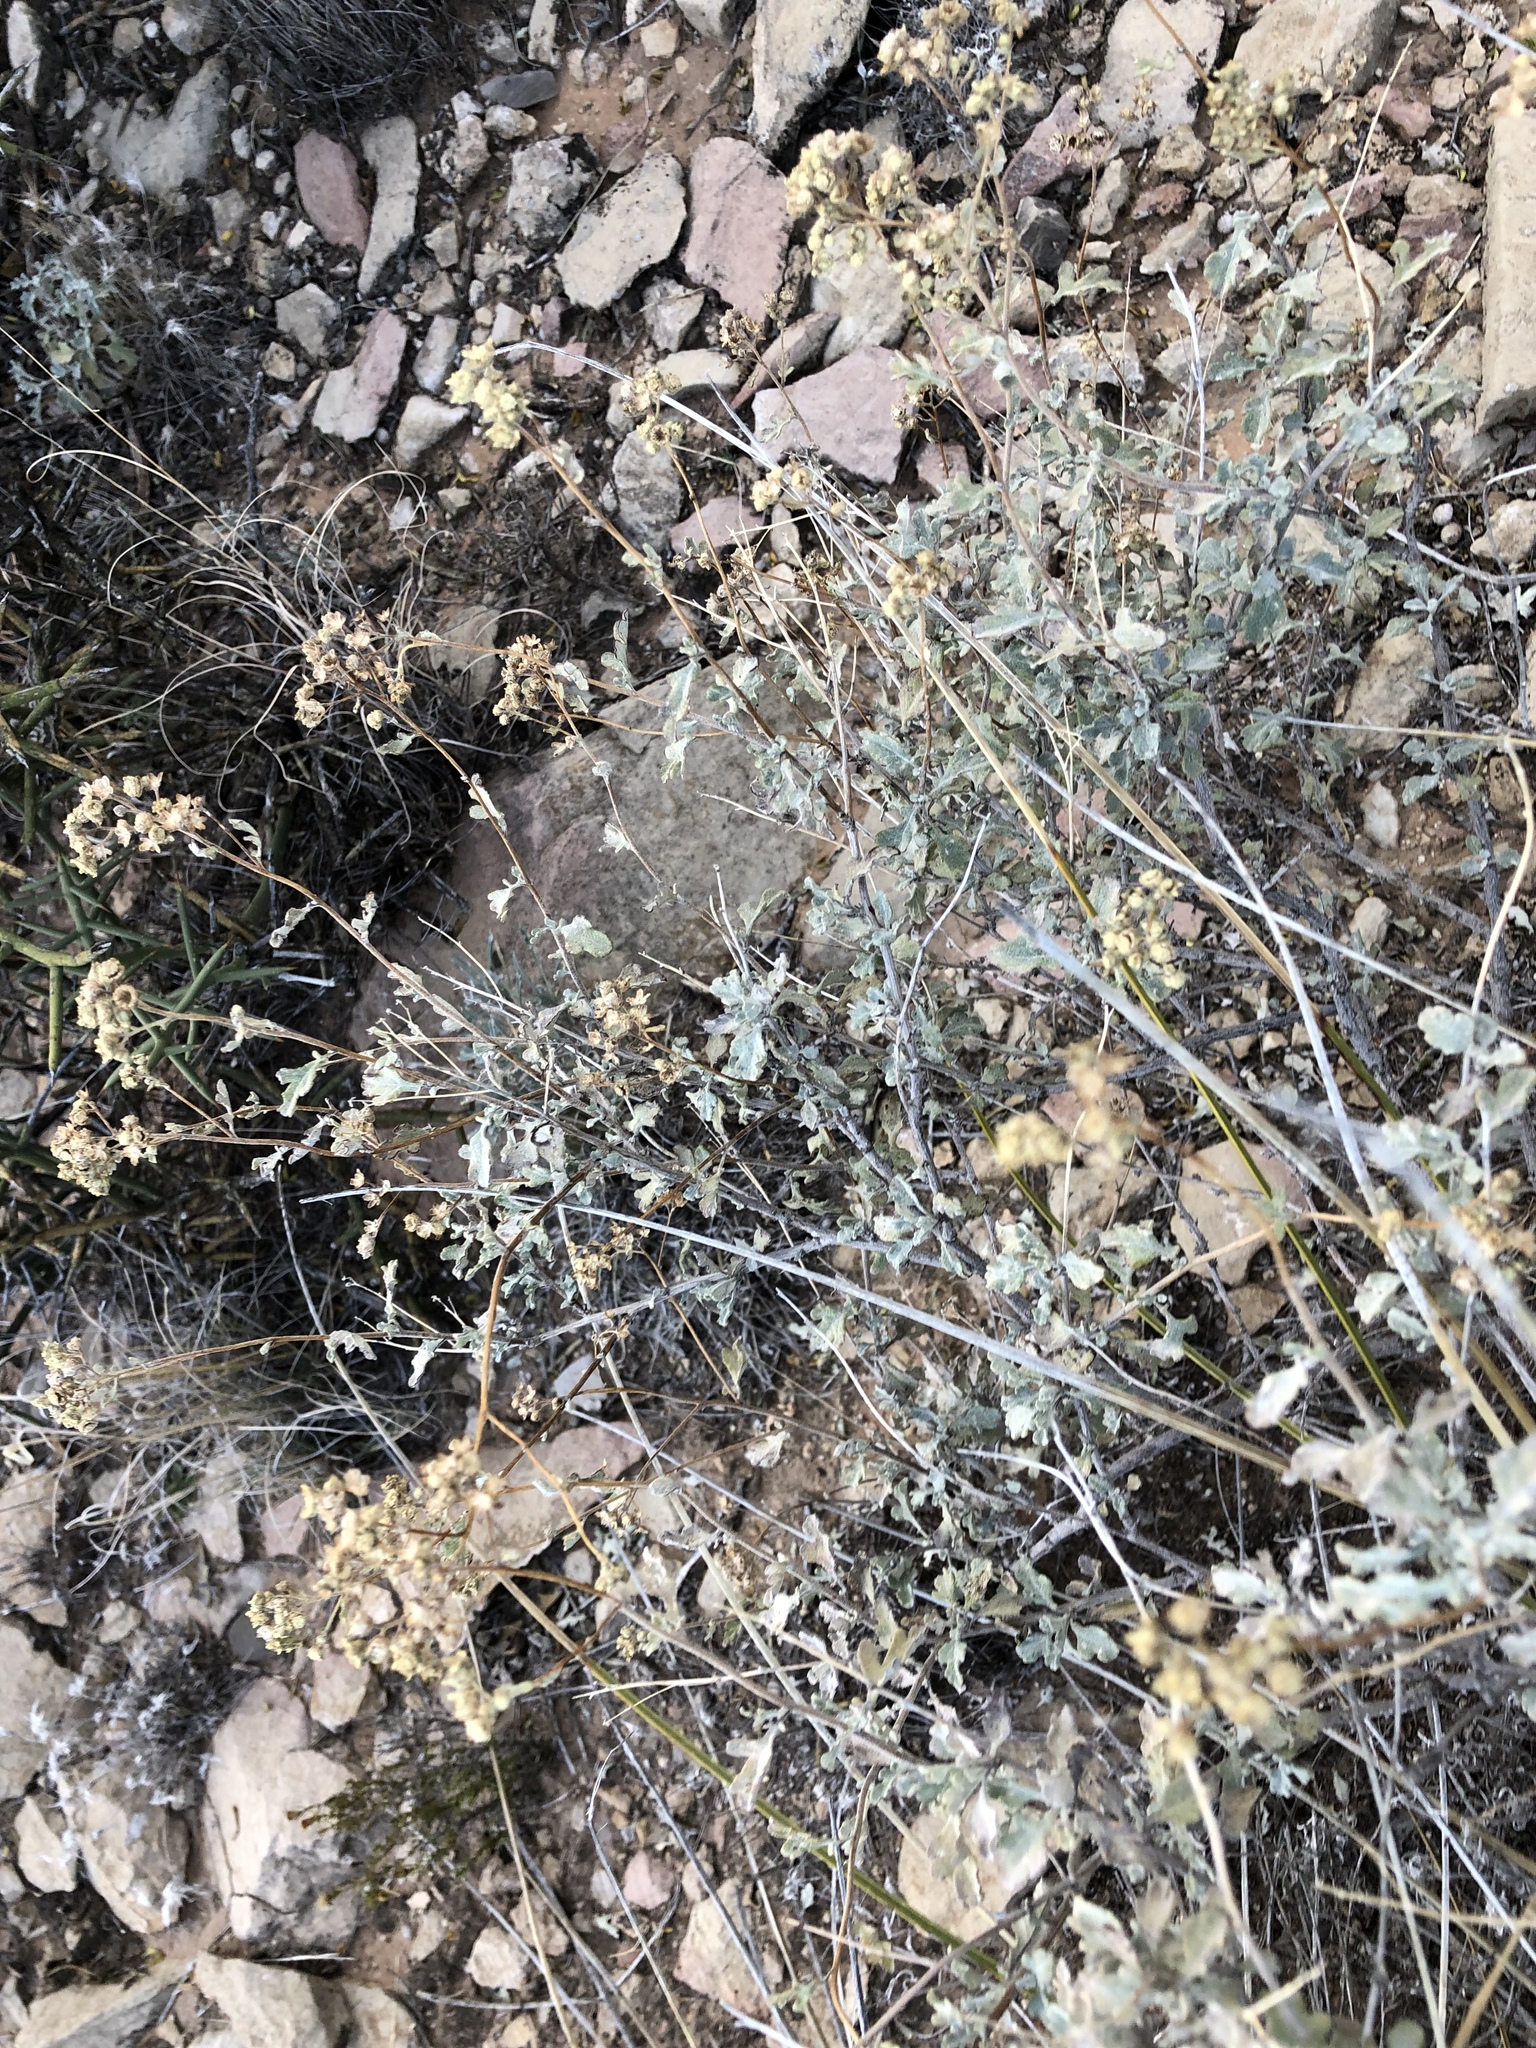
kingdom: Plantae
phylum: Tracheophyta
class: Magnoliopsida
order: Asterales
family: Asteraceae
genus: Parthenium
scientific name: Parthenium incanum
